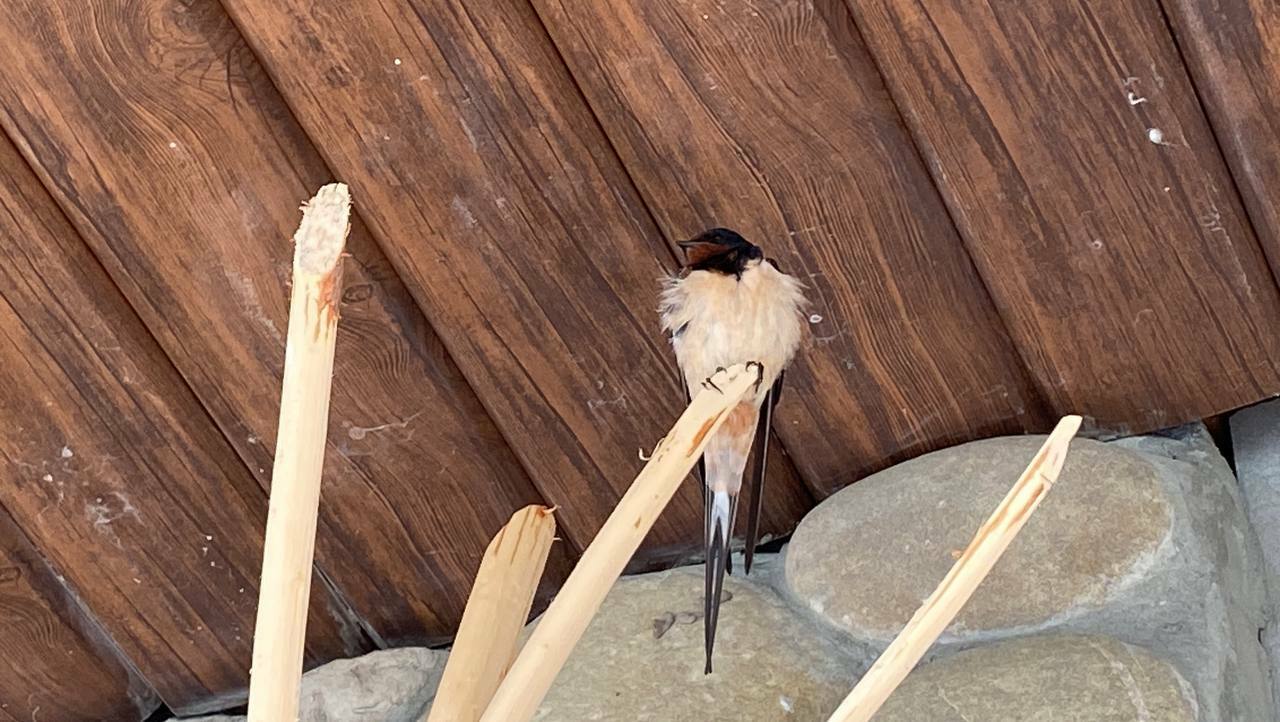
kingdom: Animalia
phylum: Chordata
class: Aves
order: Passeriformes
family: Hirundinidae
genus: Hirundo
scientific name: Hirundo rustica
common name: Barn swallow
